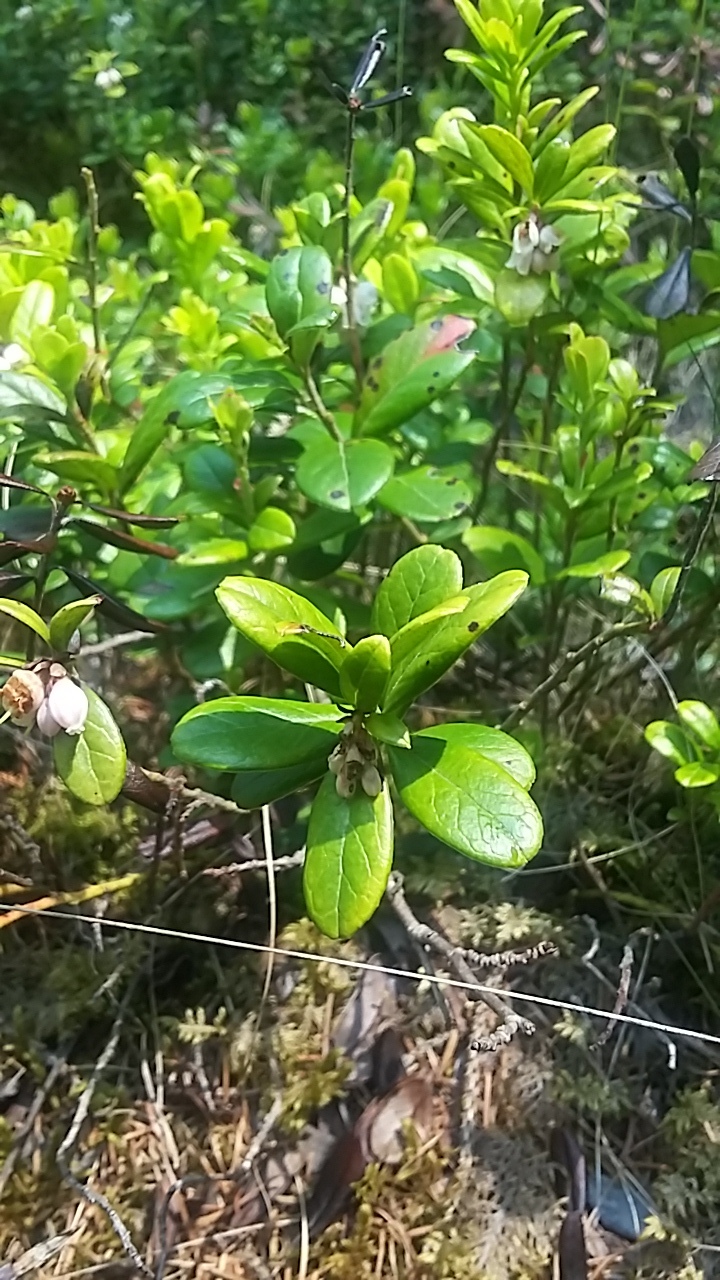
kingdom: Plantae
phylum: Tracheophyta
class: Magnoliopsida
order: Ericales
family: Ericaceae
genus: Vaccinium
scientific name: Vaccinium vitis-idaea
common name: Cowberry
